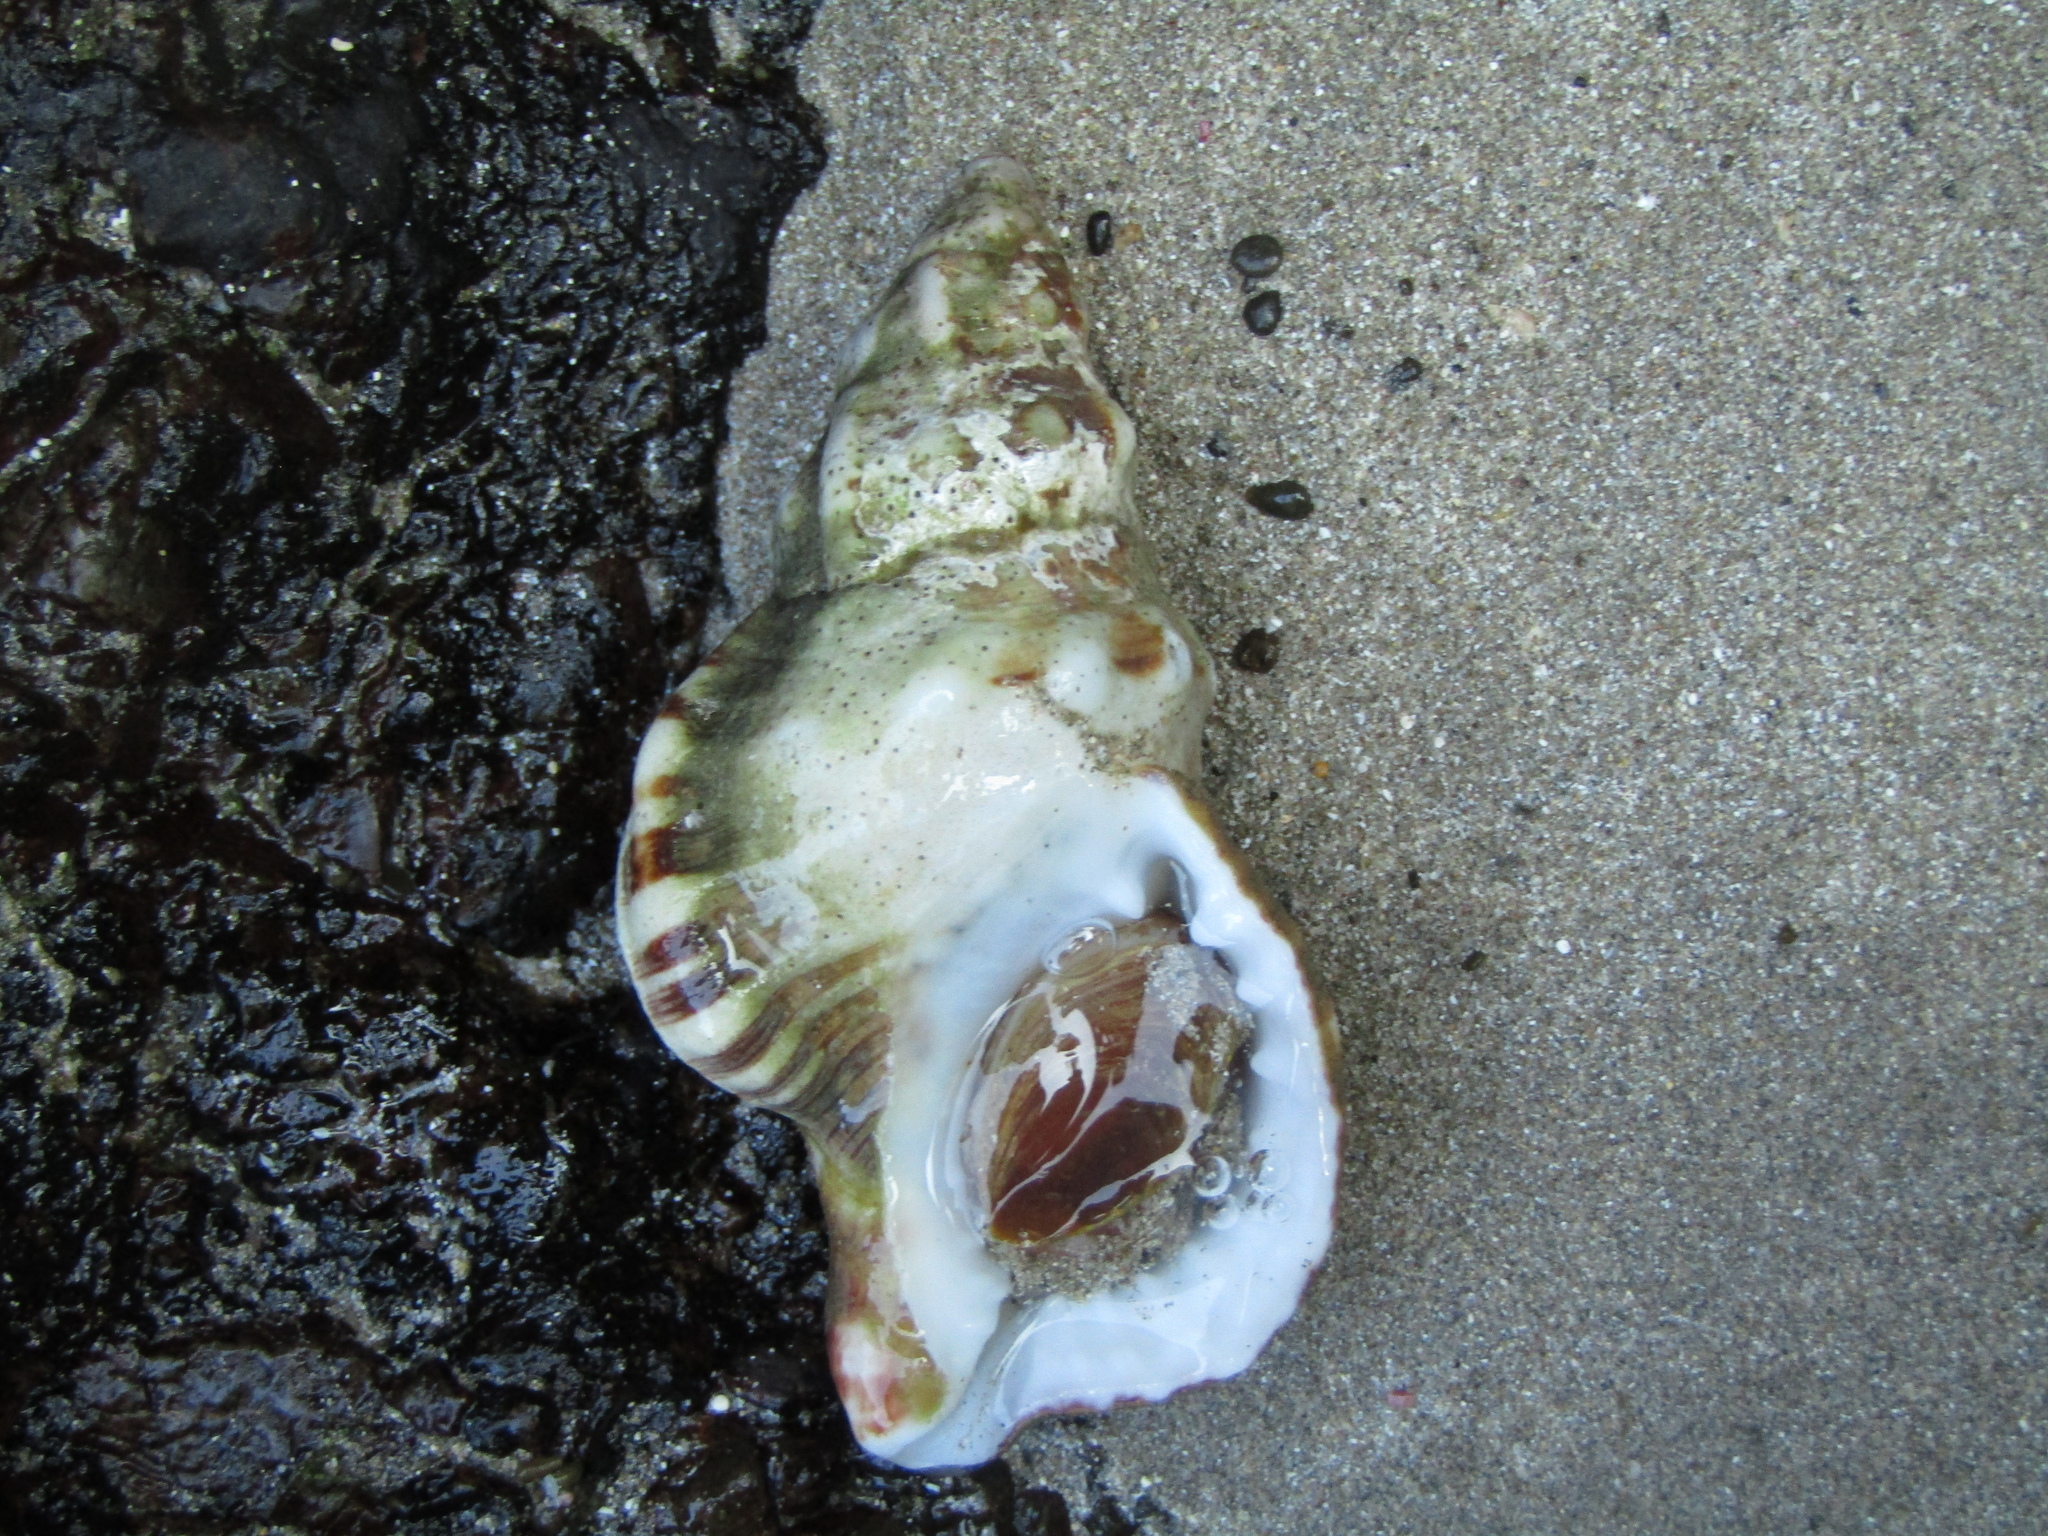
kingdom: Animalia
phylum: Mollusca
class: Gastropoda
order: Littorinimorpha
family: Ranellidae
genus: Ranella
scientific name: Ranella australasia
